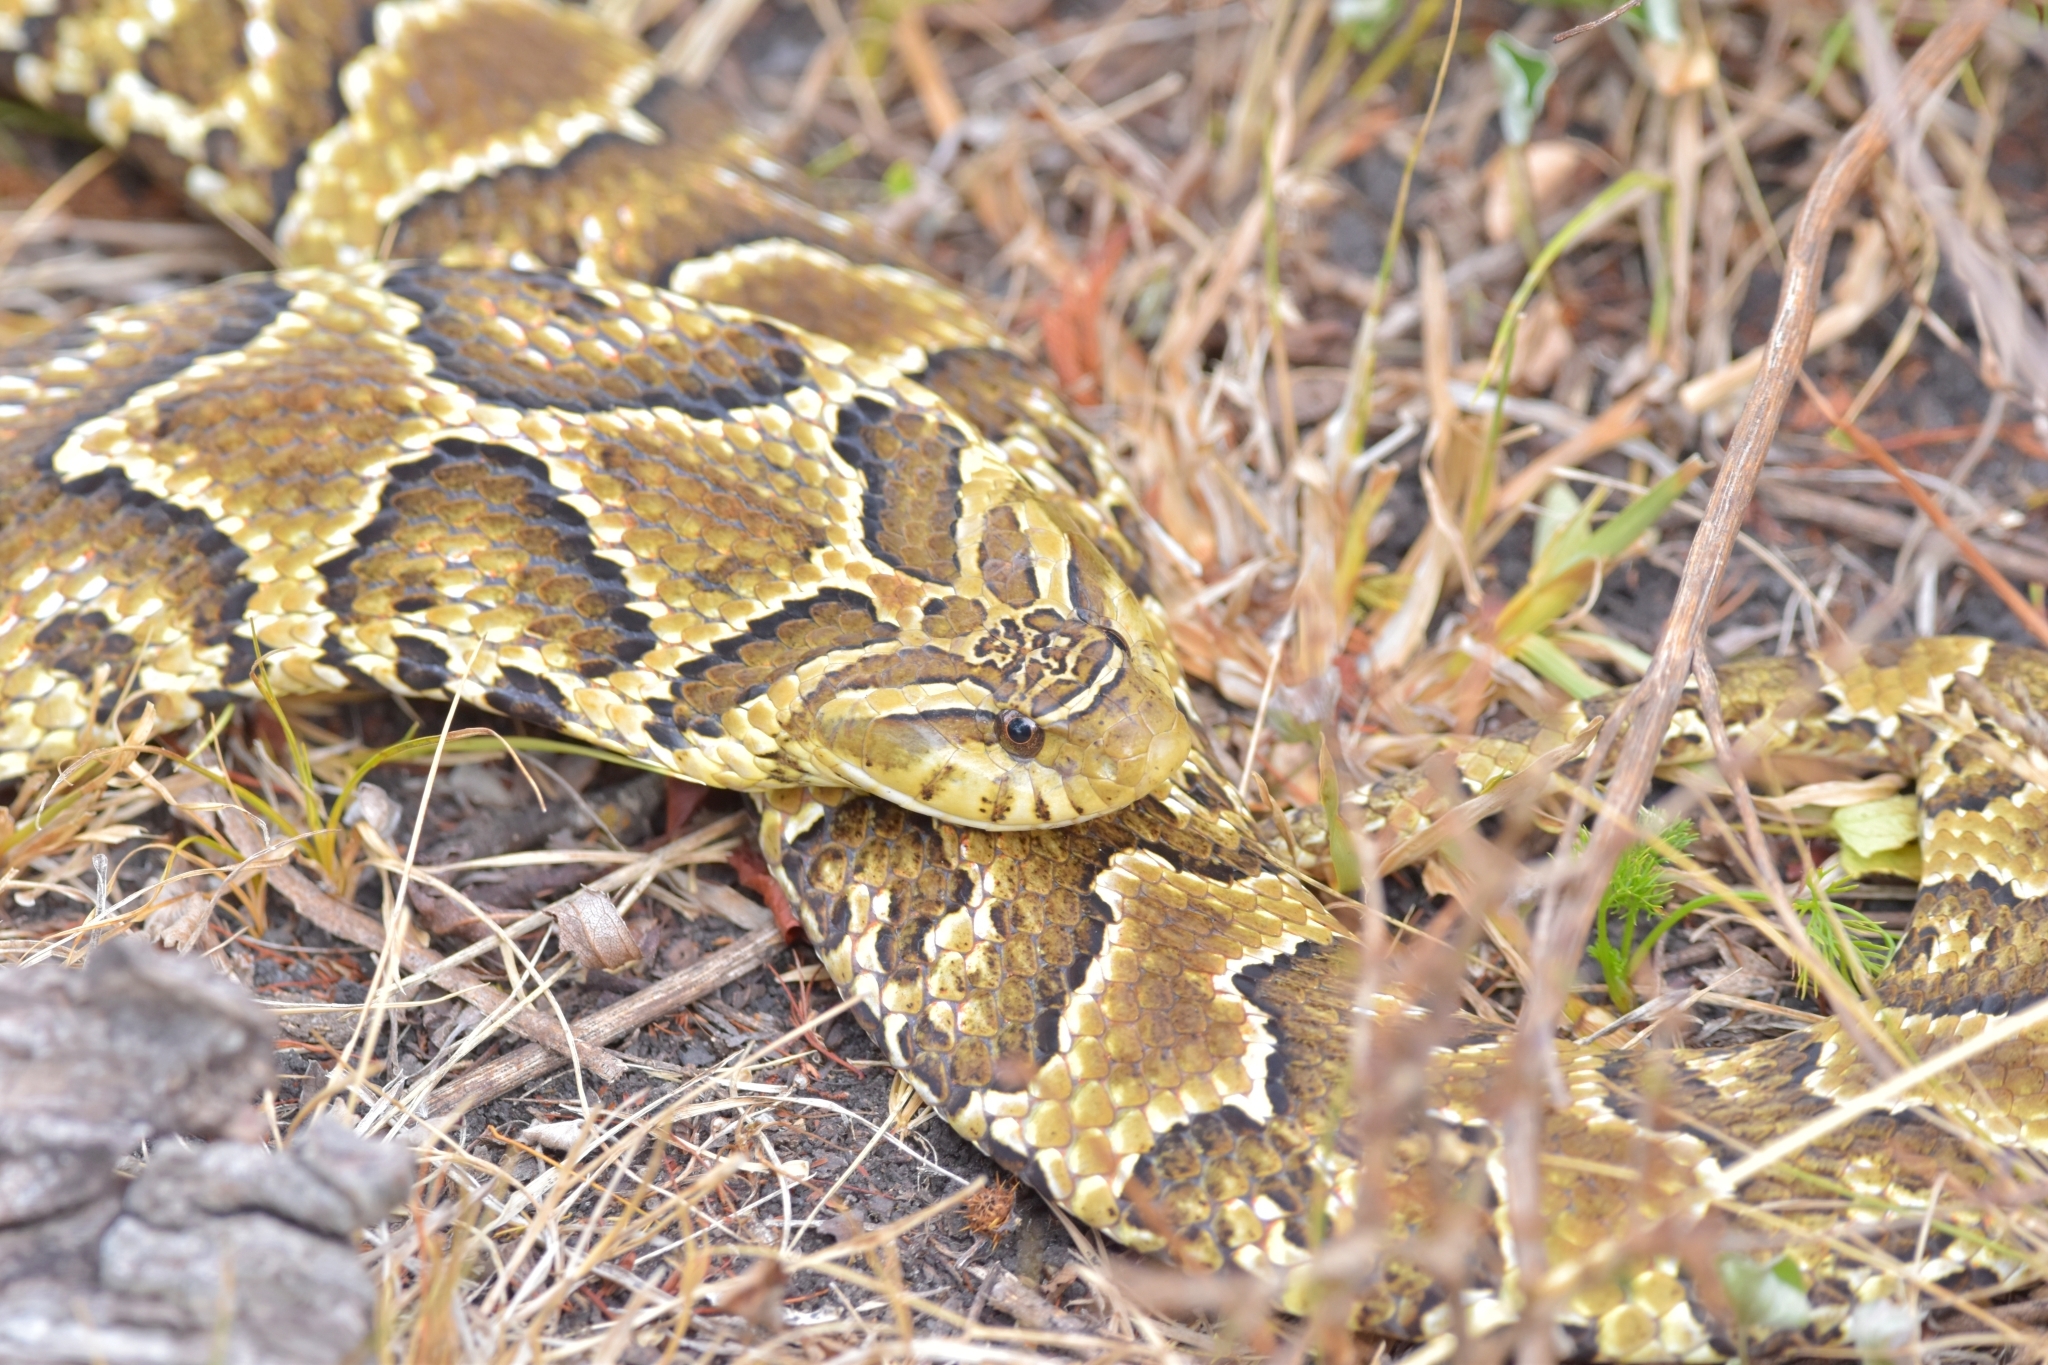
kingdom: Animalia
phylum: Chordata
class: Squamata
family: Colubridae
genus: Xenodon
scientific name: Xenodon merremii
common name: Wagler's snake
